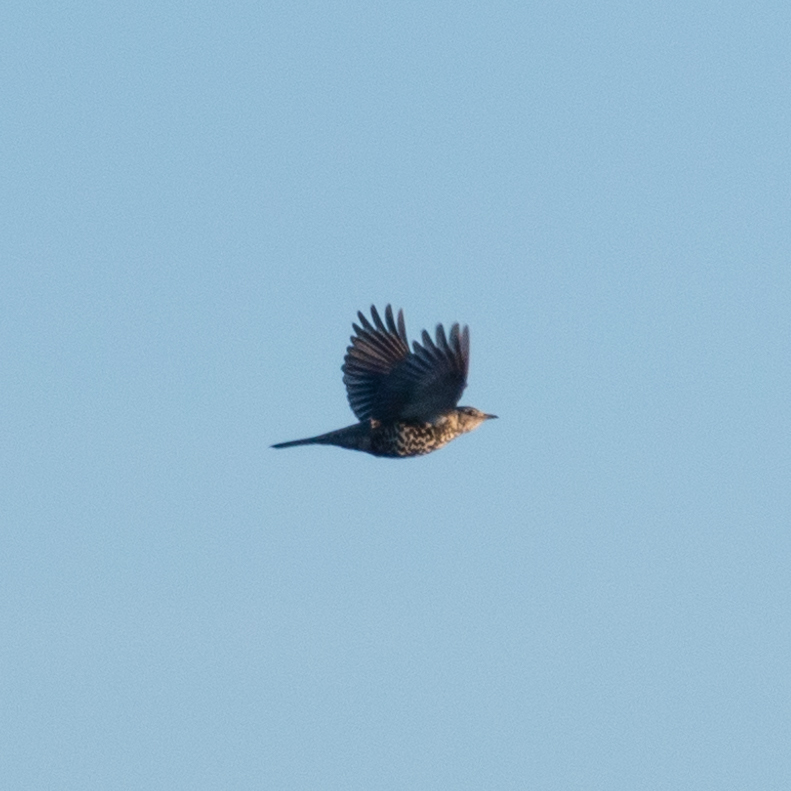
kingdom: Animalia
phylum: Chordata
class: Aves
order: Passeriformes
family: Turdidae
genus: Turdus
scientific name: Turdus viscivorus
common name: Mistle thrush
